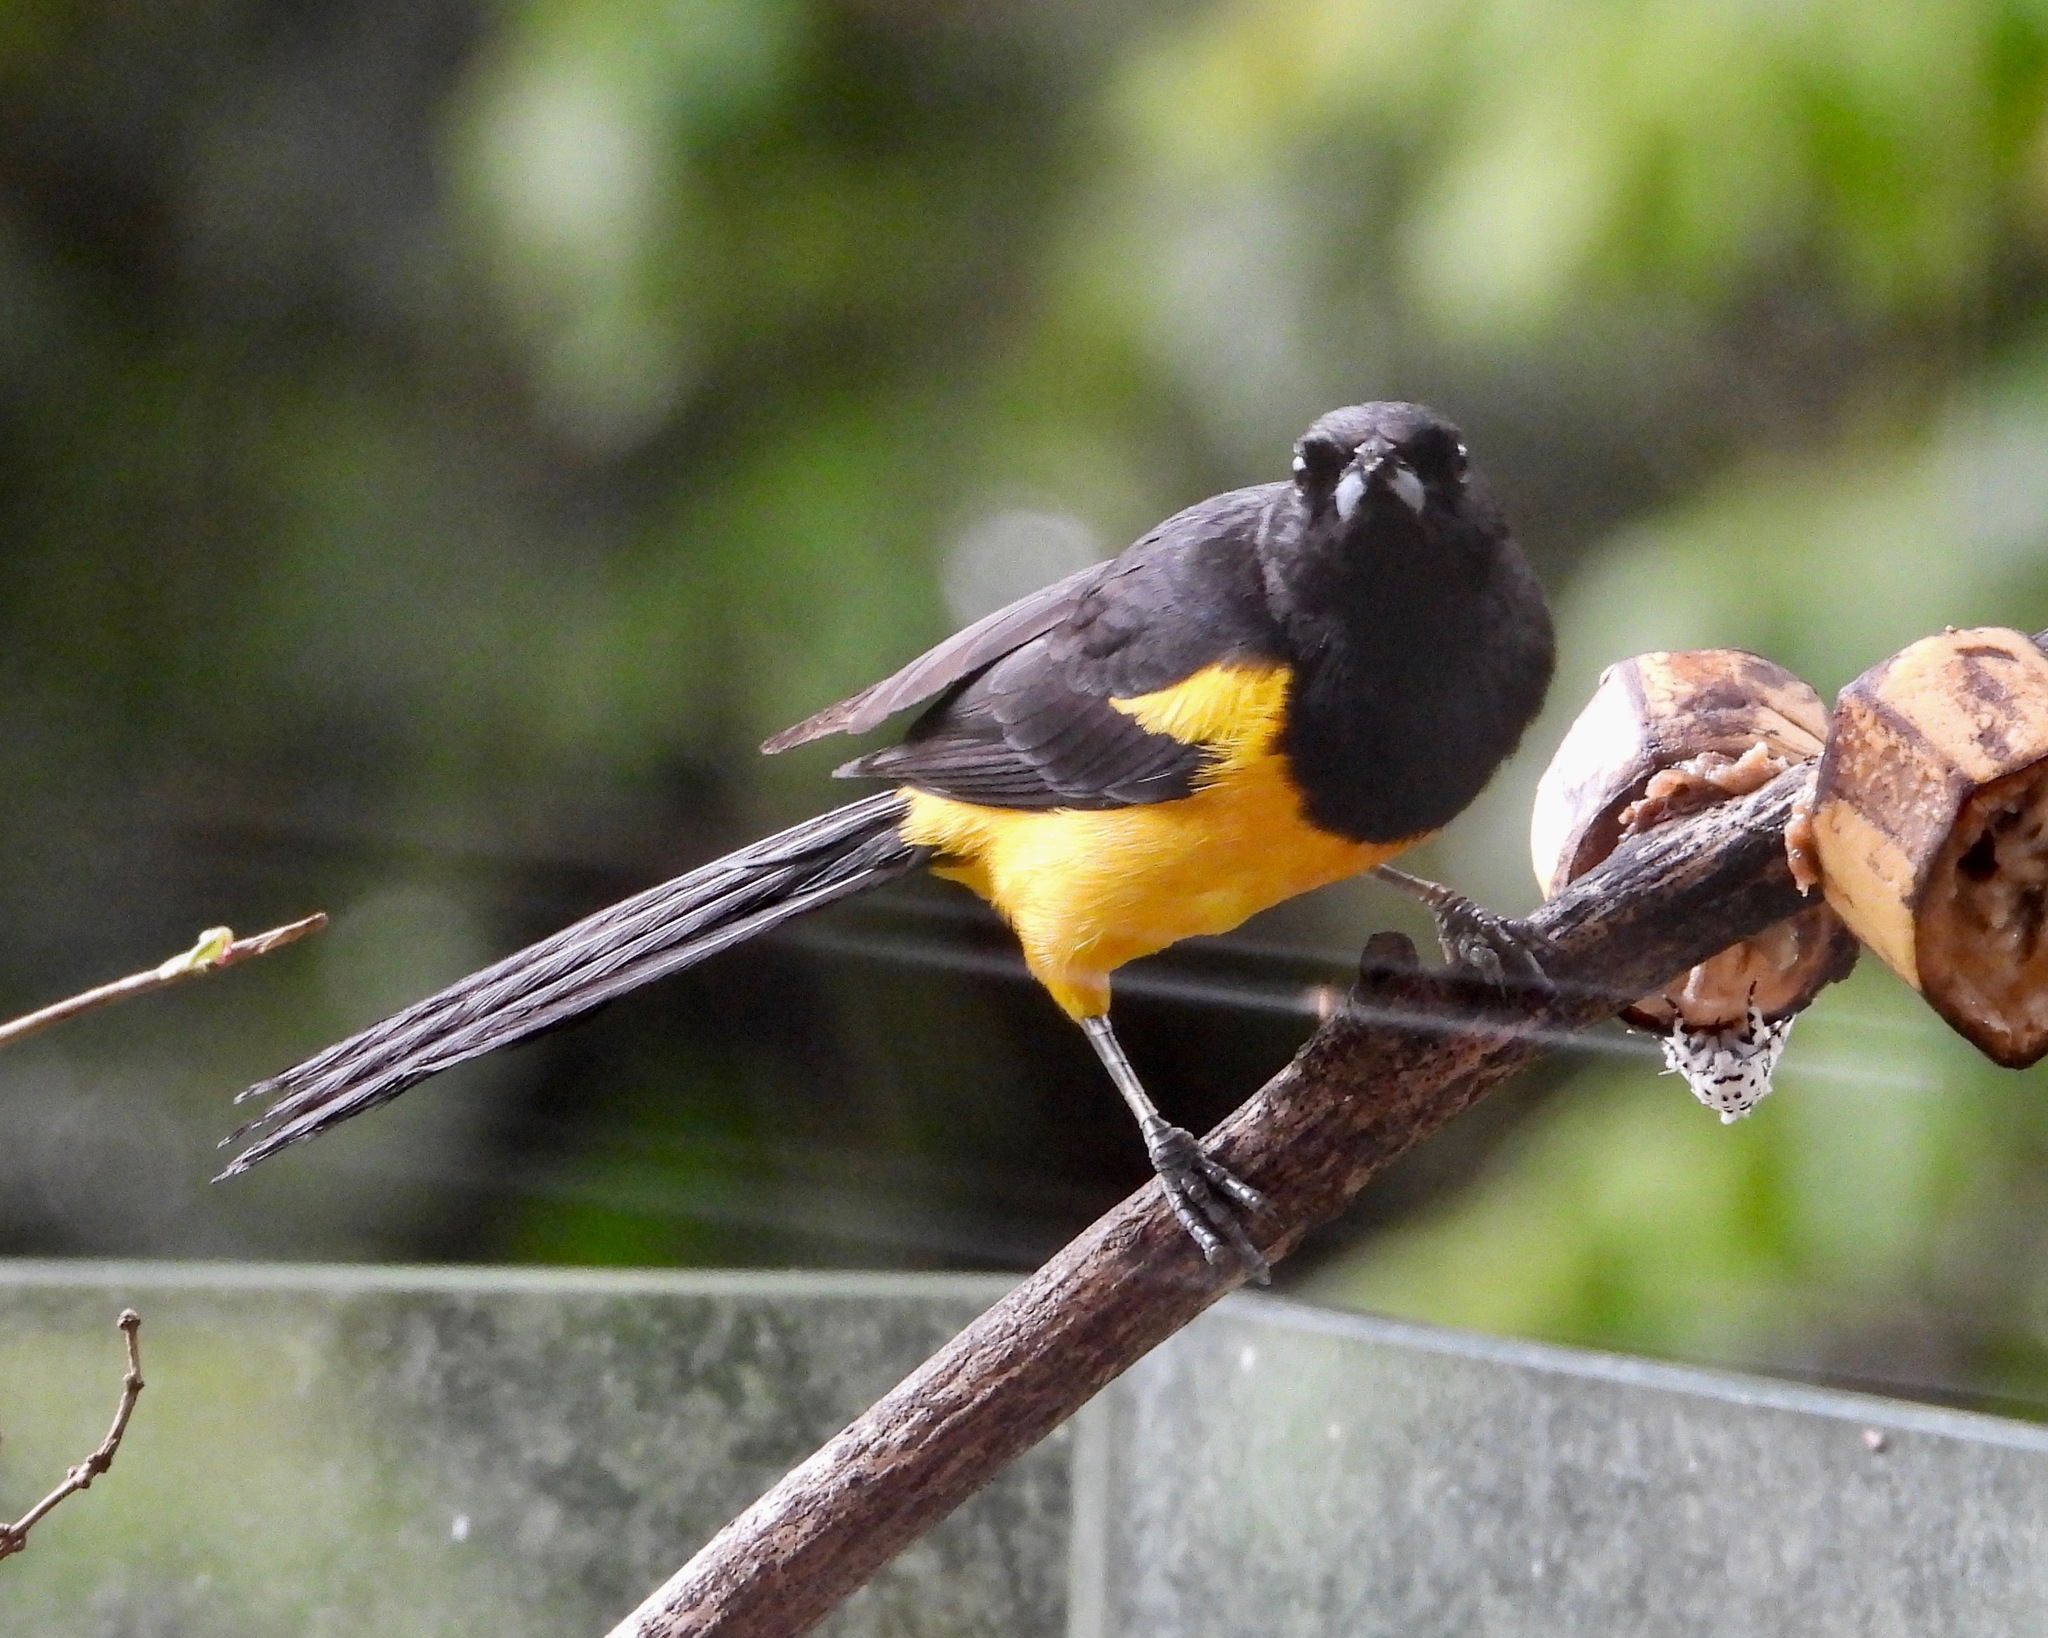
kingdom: Animalia
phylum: Chordata
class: Aves
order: Passeriformes
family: Icteridae
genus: Icterus
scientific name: Icterus wagleri
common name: Black-vented oriole
